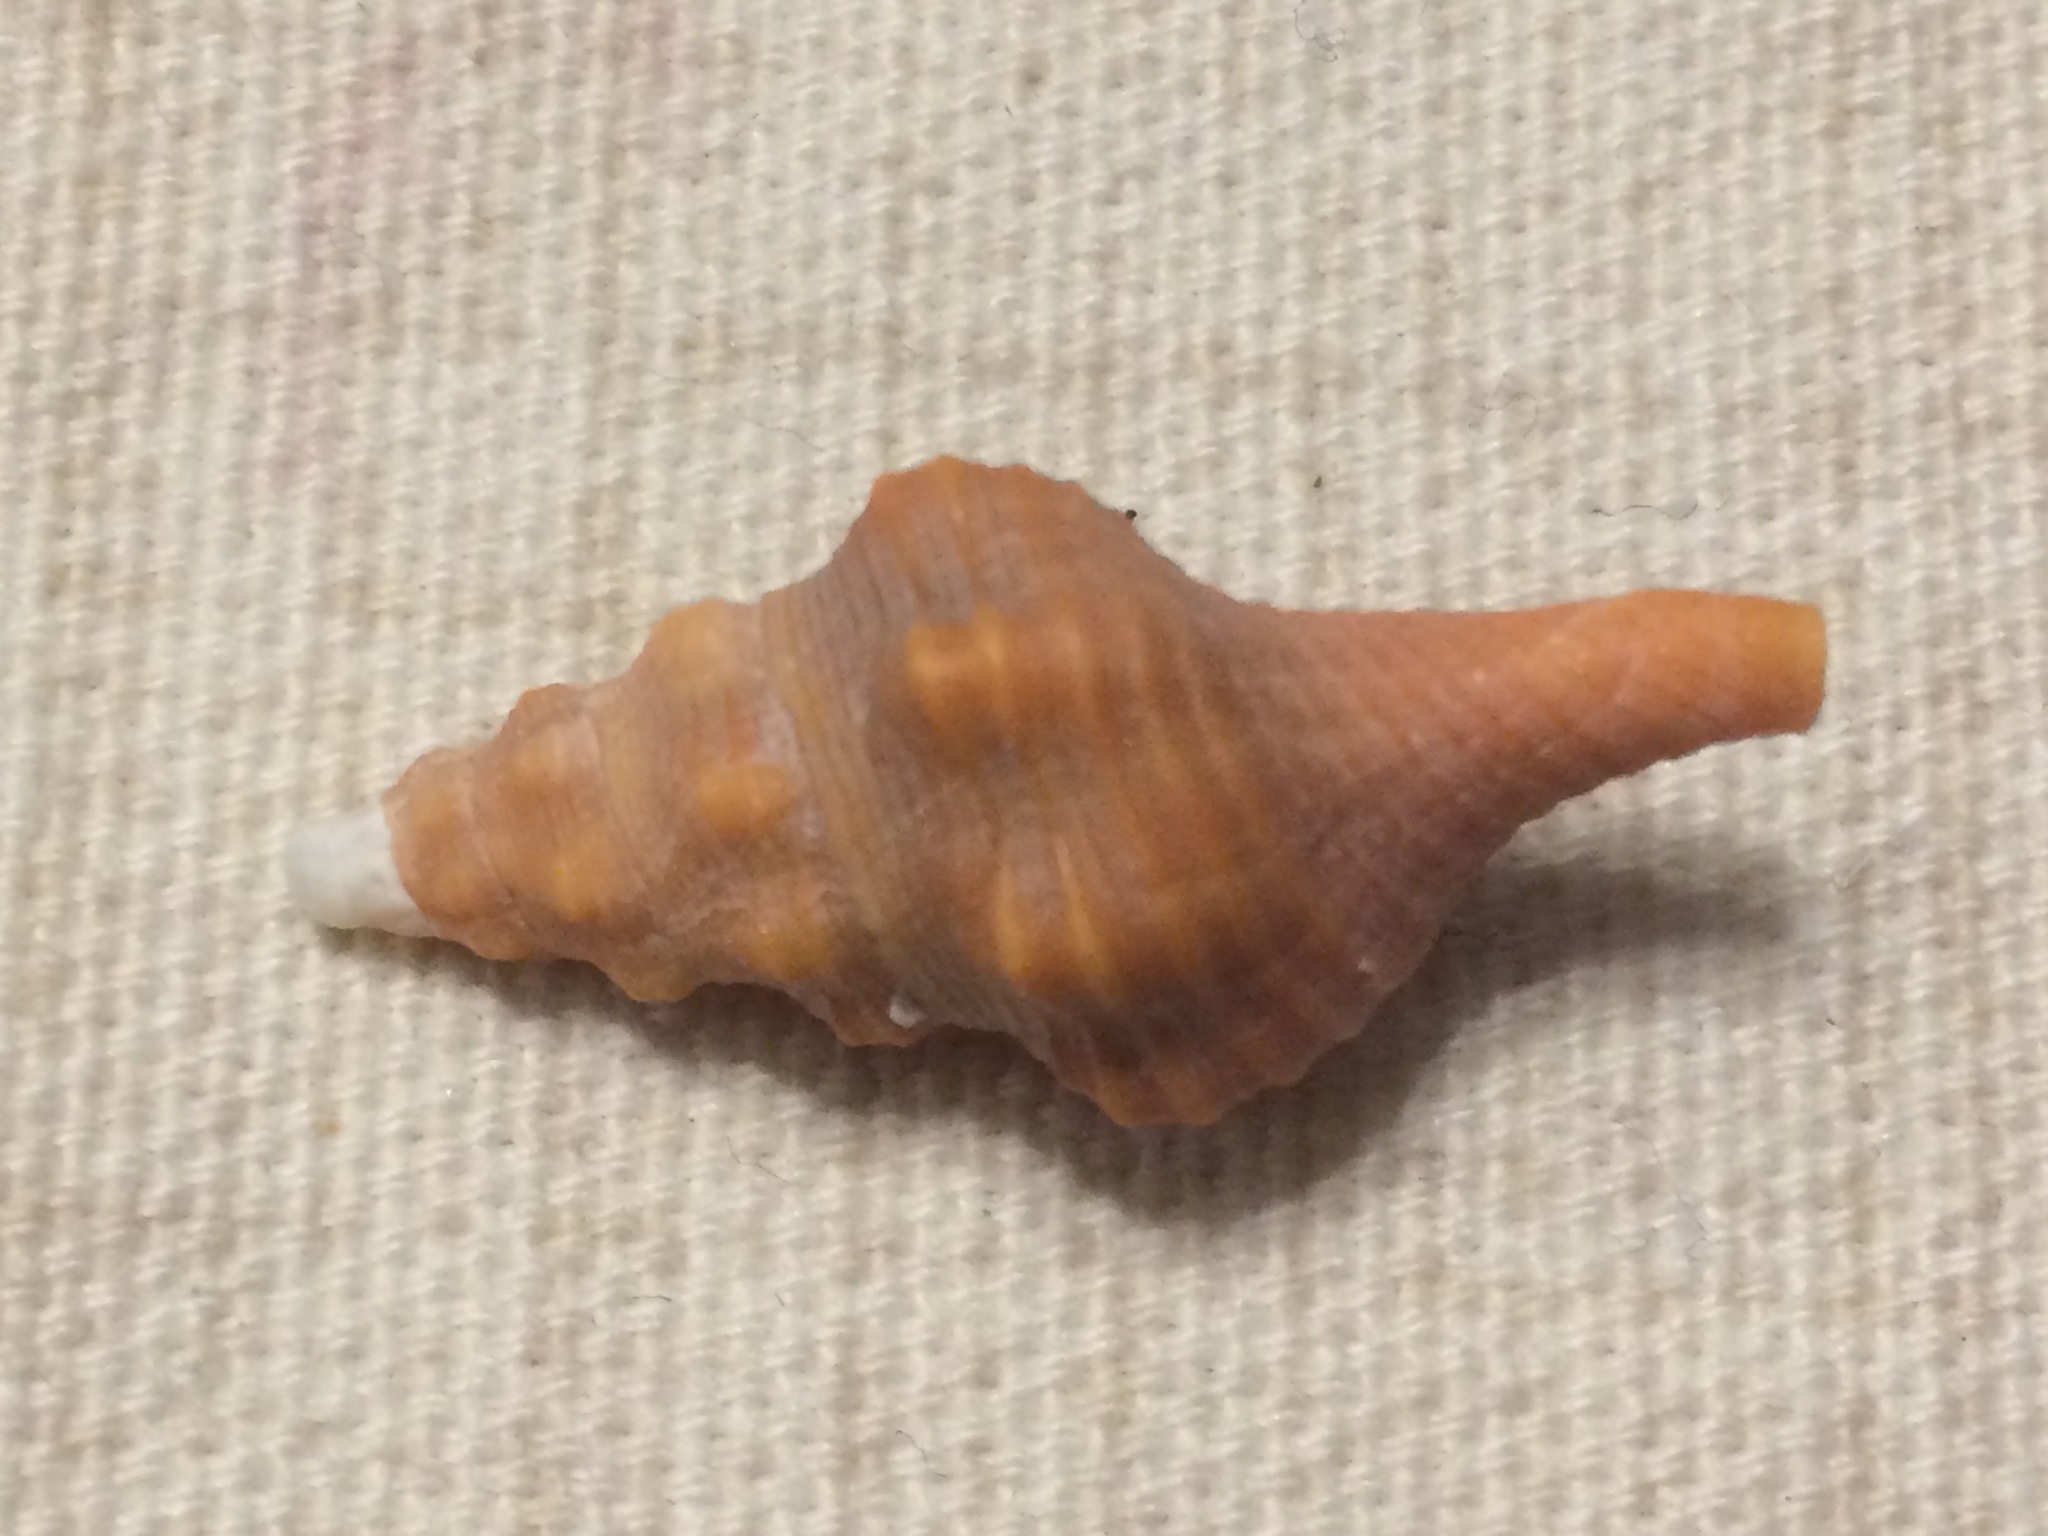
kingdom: Animalia
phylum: Mollusca
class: Gastropoda
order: Neogastropoda
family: Fasciolariidae
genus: Triplofusus
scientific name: Triplofusus giganteus
